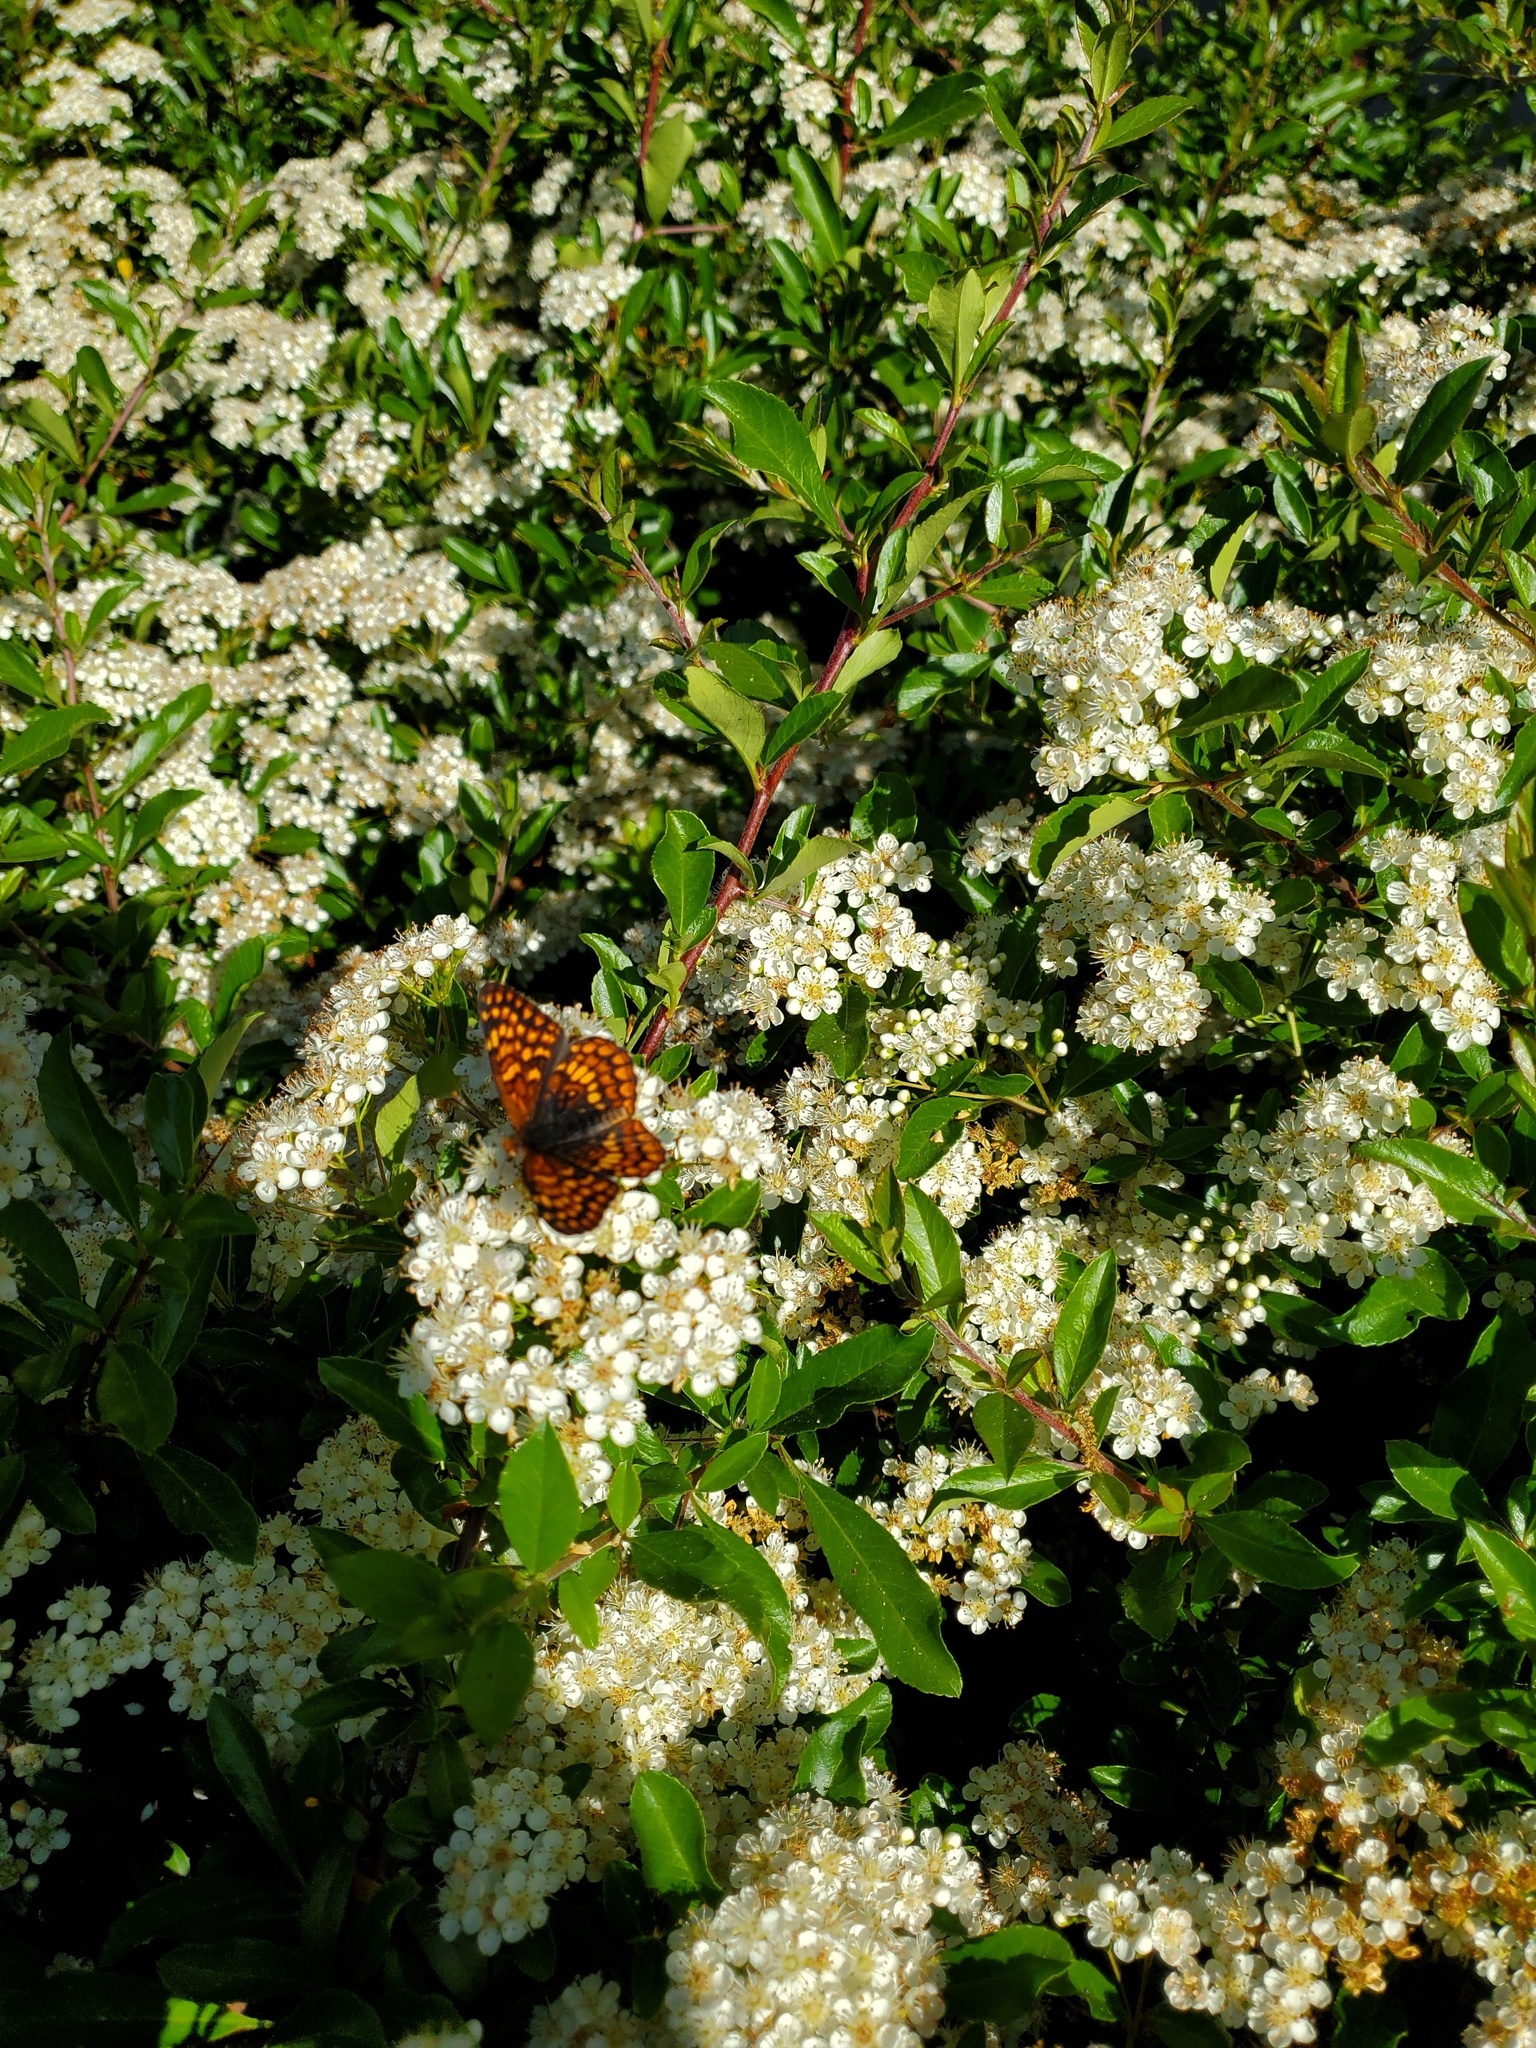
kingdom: Animalia
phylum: Arthropoda
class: Insecta
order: Lepidoptera
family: Nymphalidae
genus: Chlosyne
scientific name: Chlosyne palla
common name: Northern checkerspot
